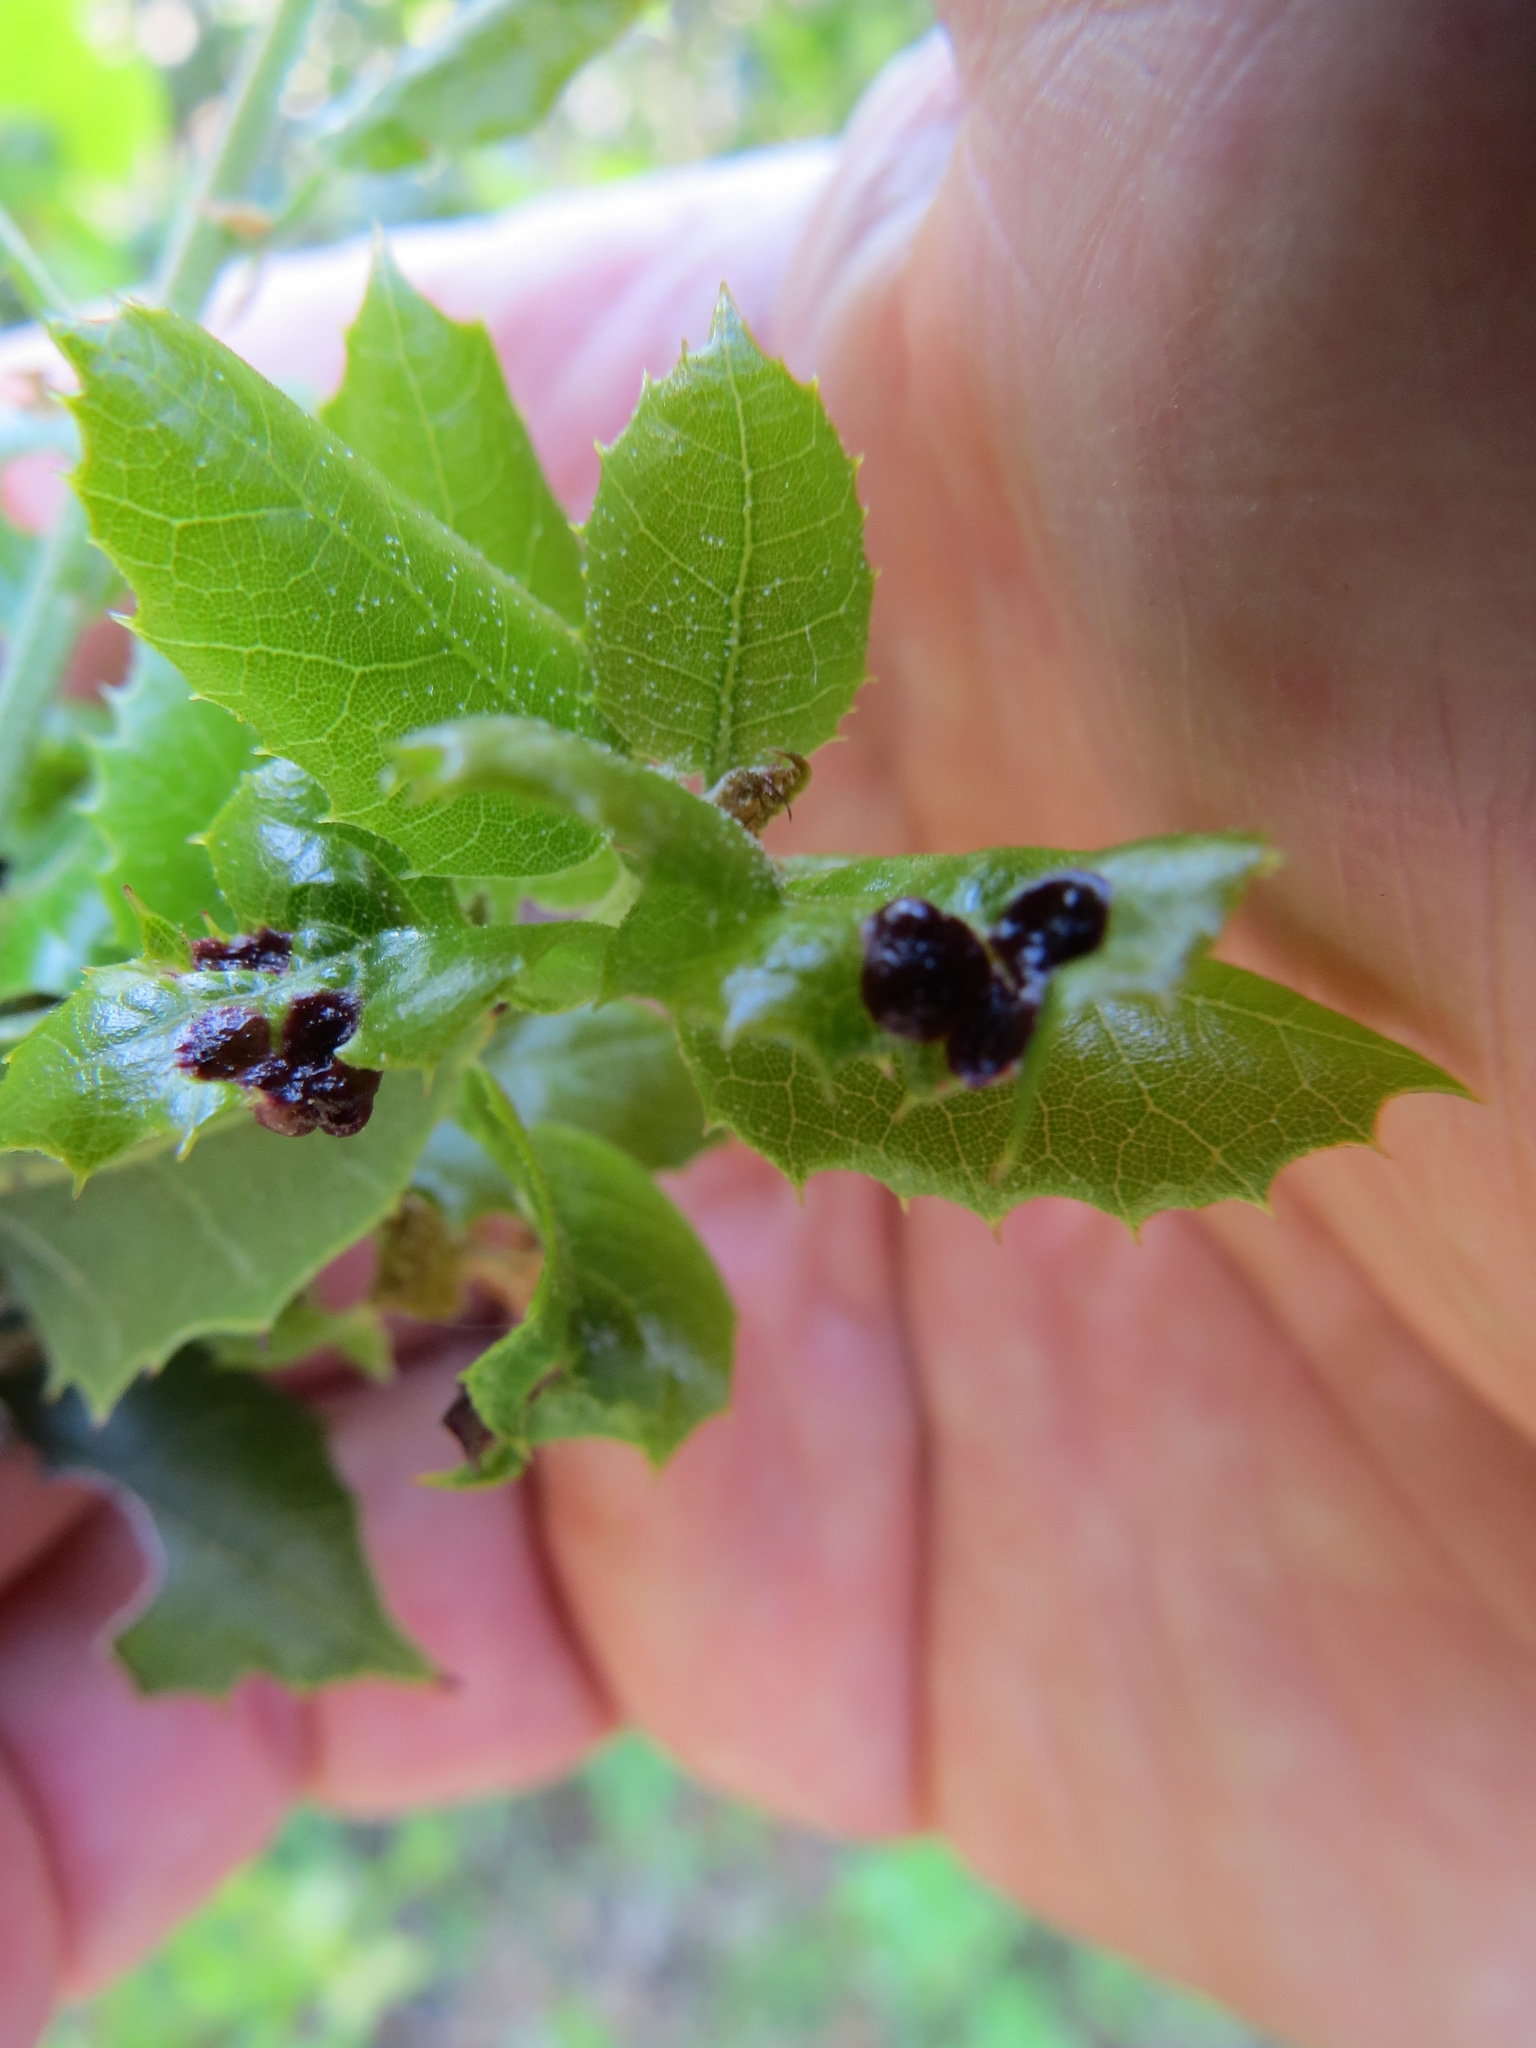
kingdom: Animalia
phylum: Arthropoda
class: Insecta
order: Hymenoptera
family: Cynipidae
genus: Dryocosmus
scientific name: Dryocosmus
